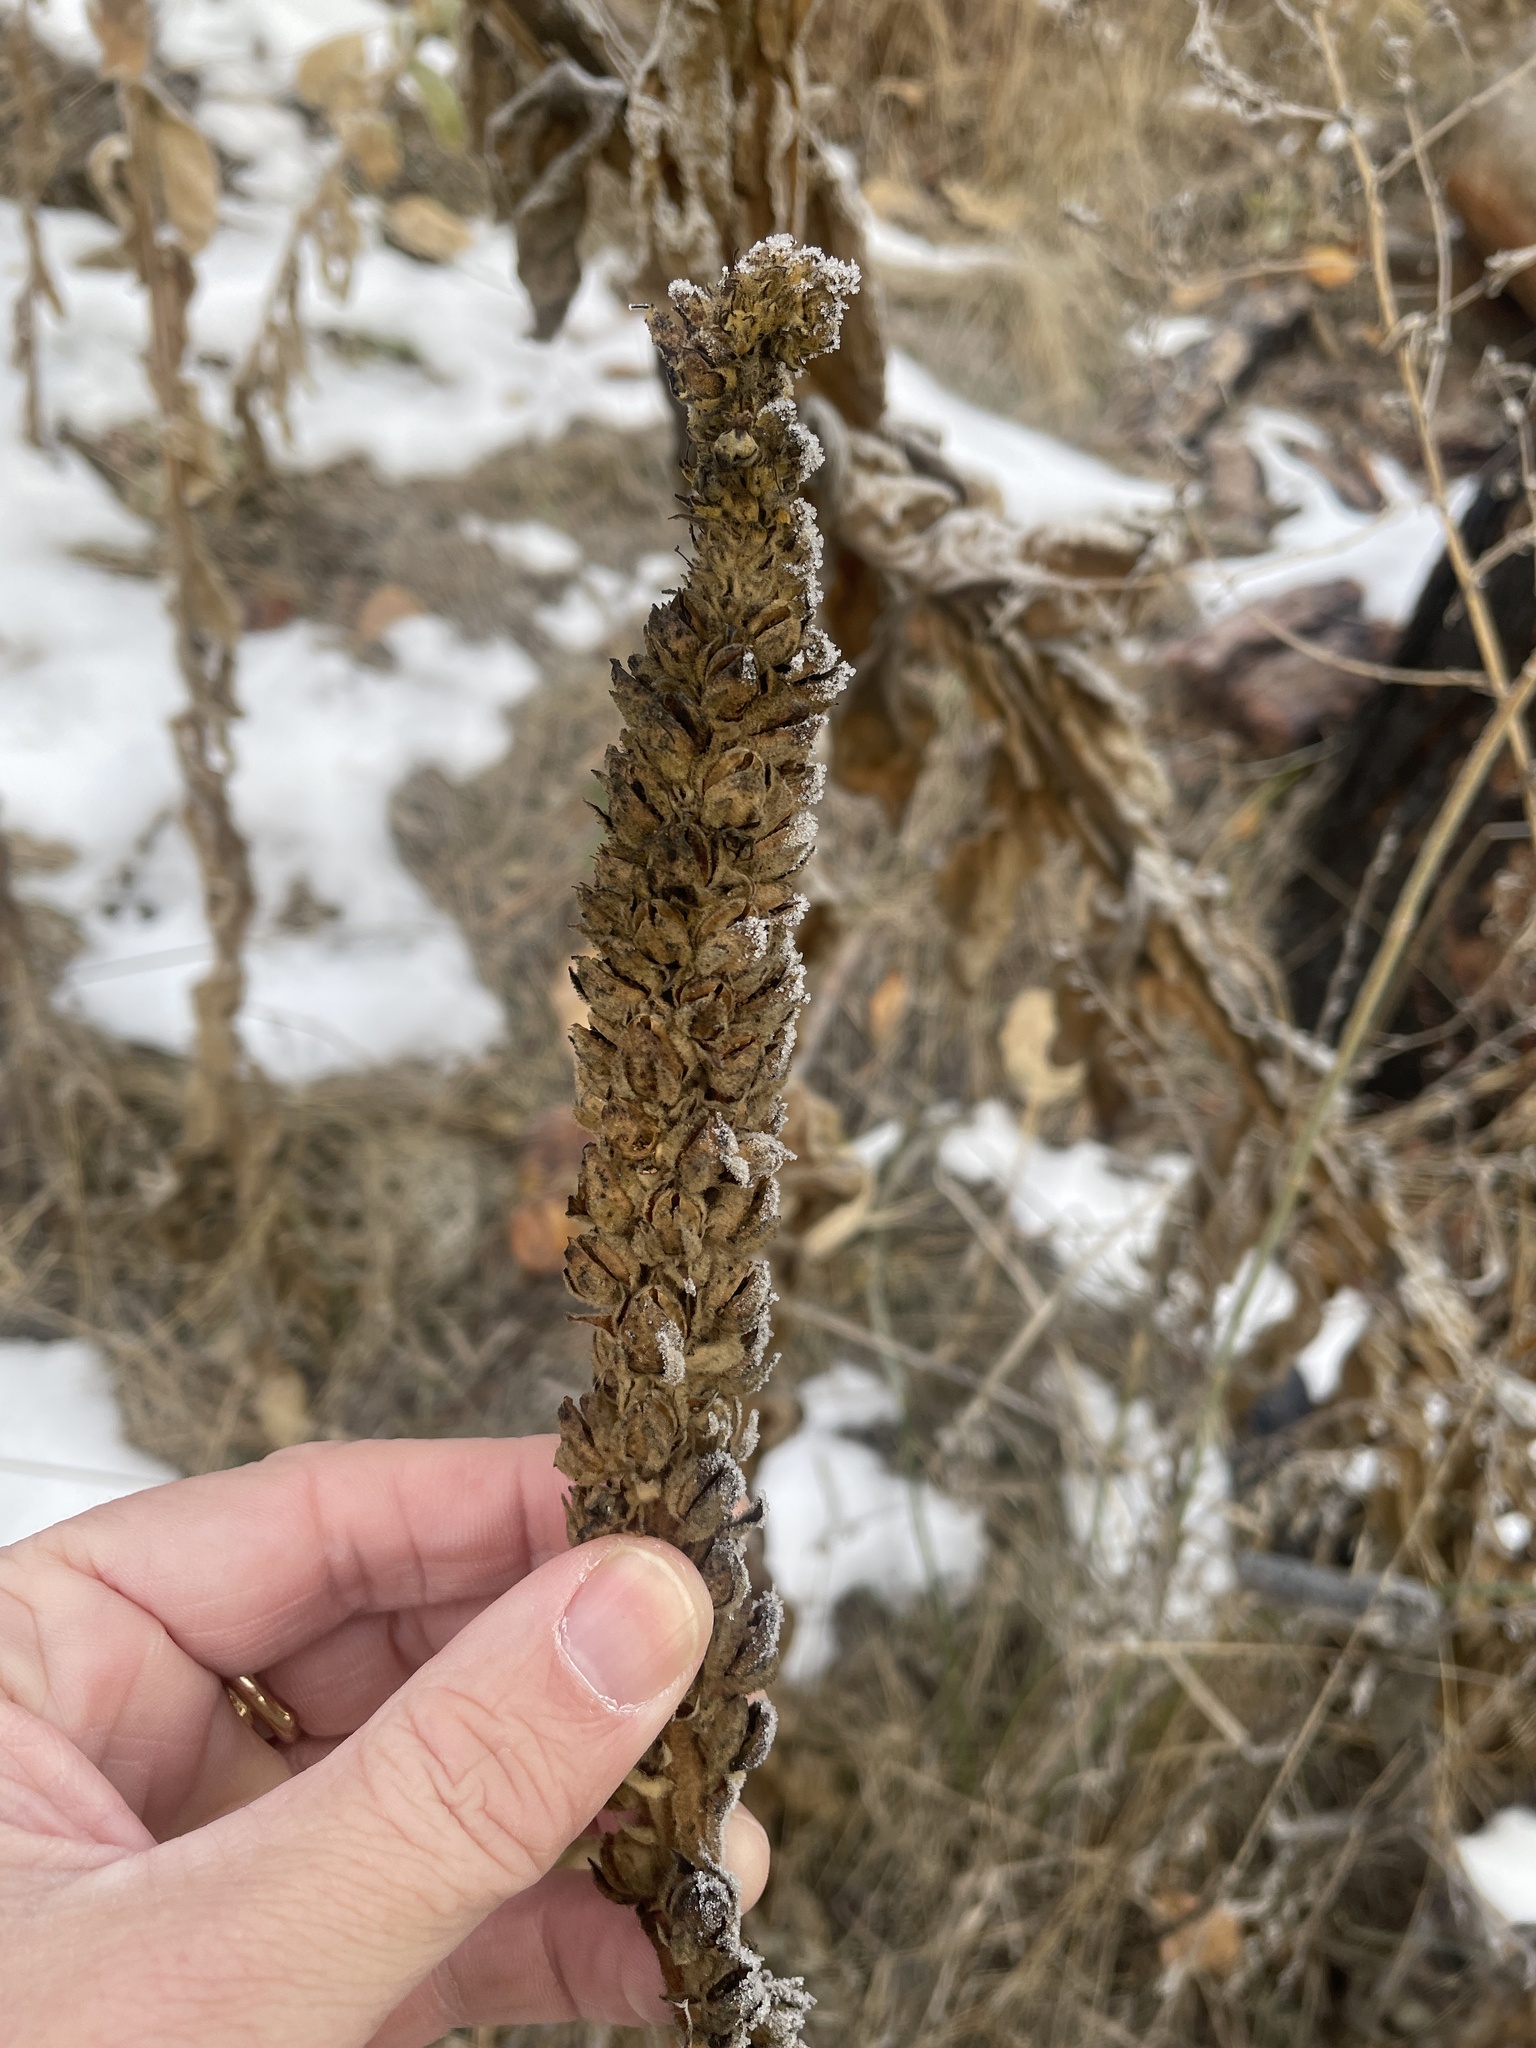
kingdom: Plantae
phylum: Tracheophyta
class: Magnoliopsida
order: Lamiales
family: Scrophulariaceae
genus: Verbascum
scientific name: Verbascum thapsus
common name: Common mullein
